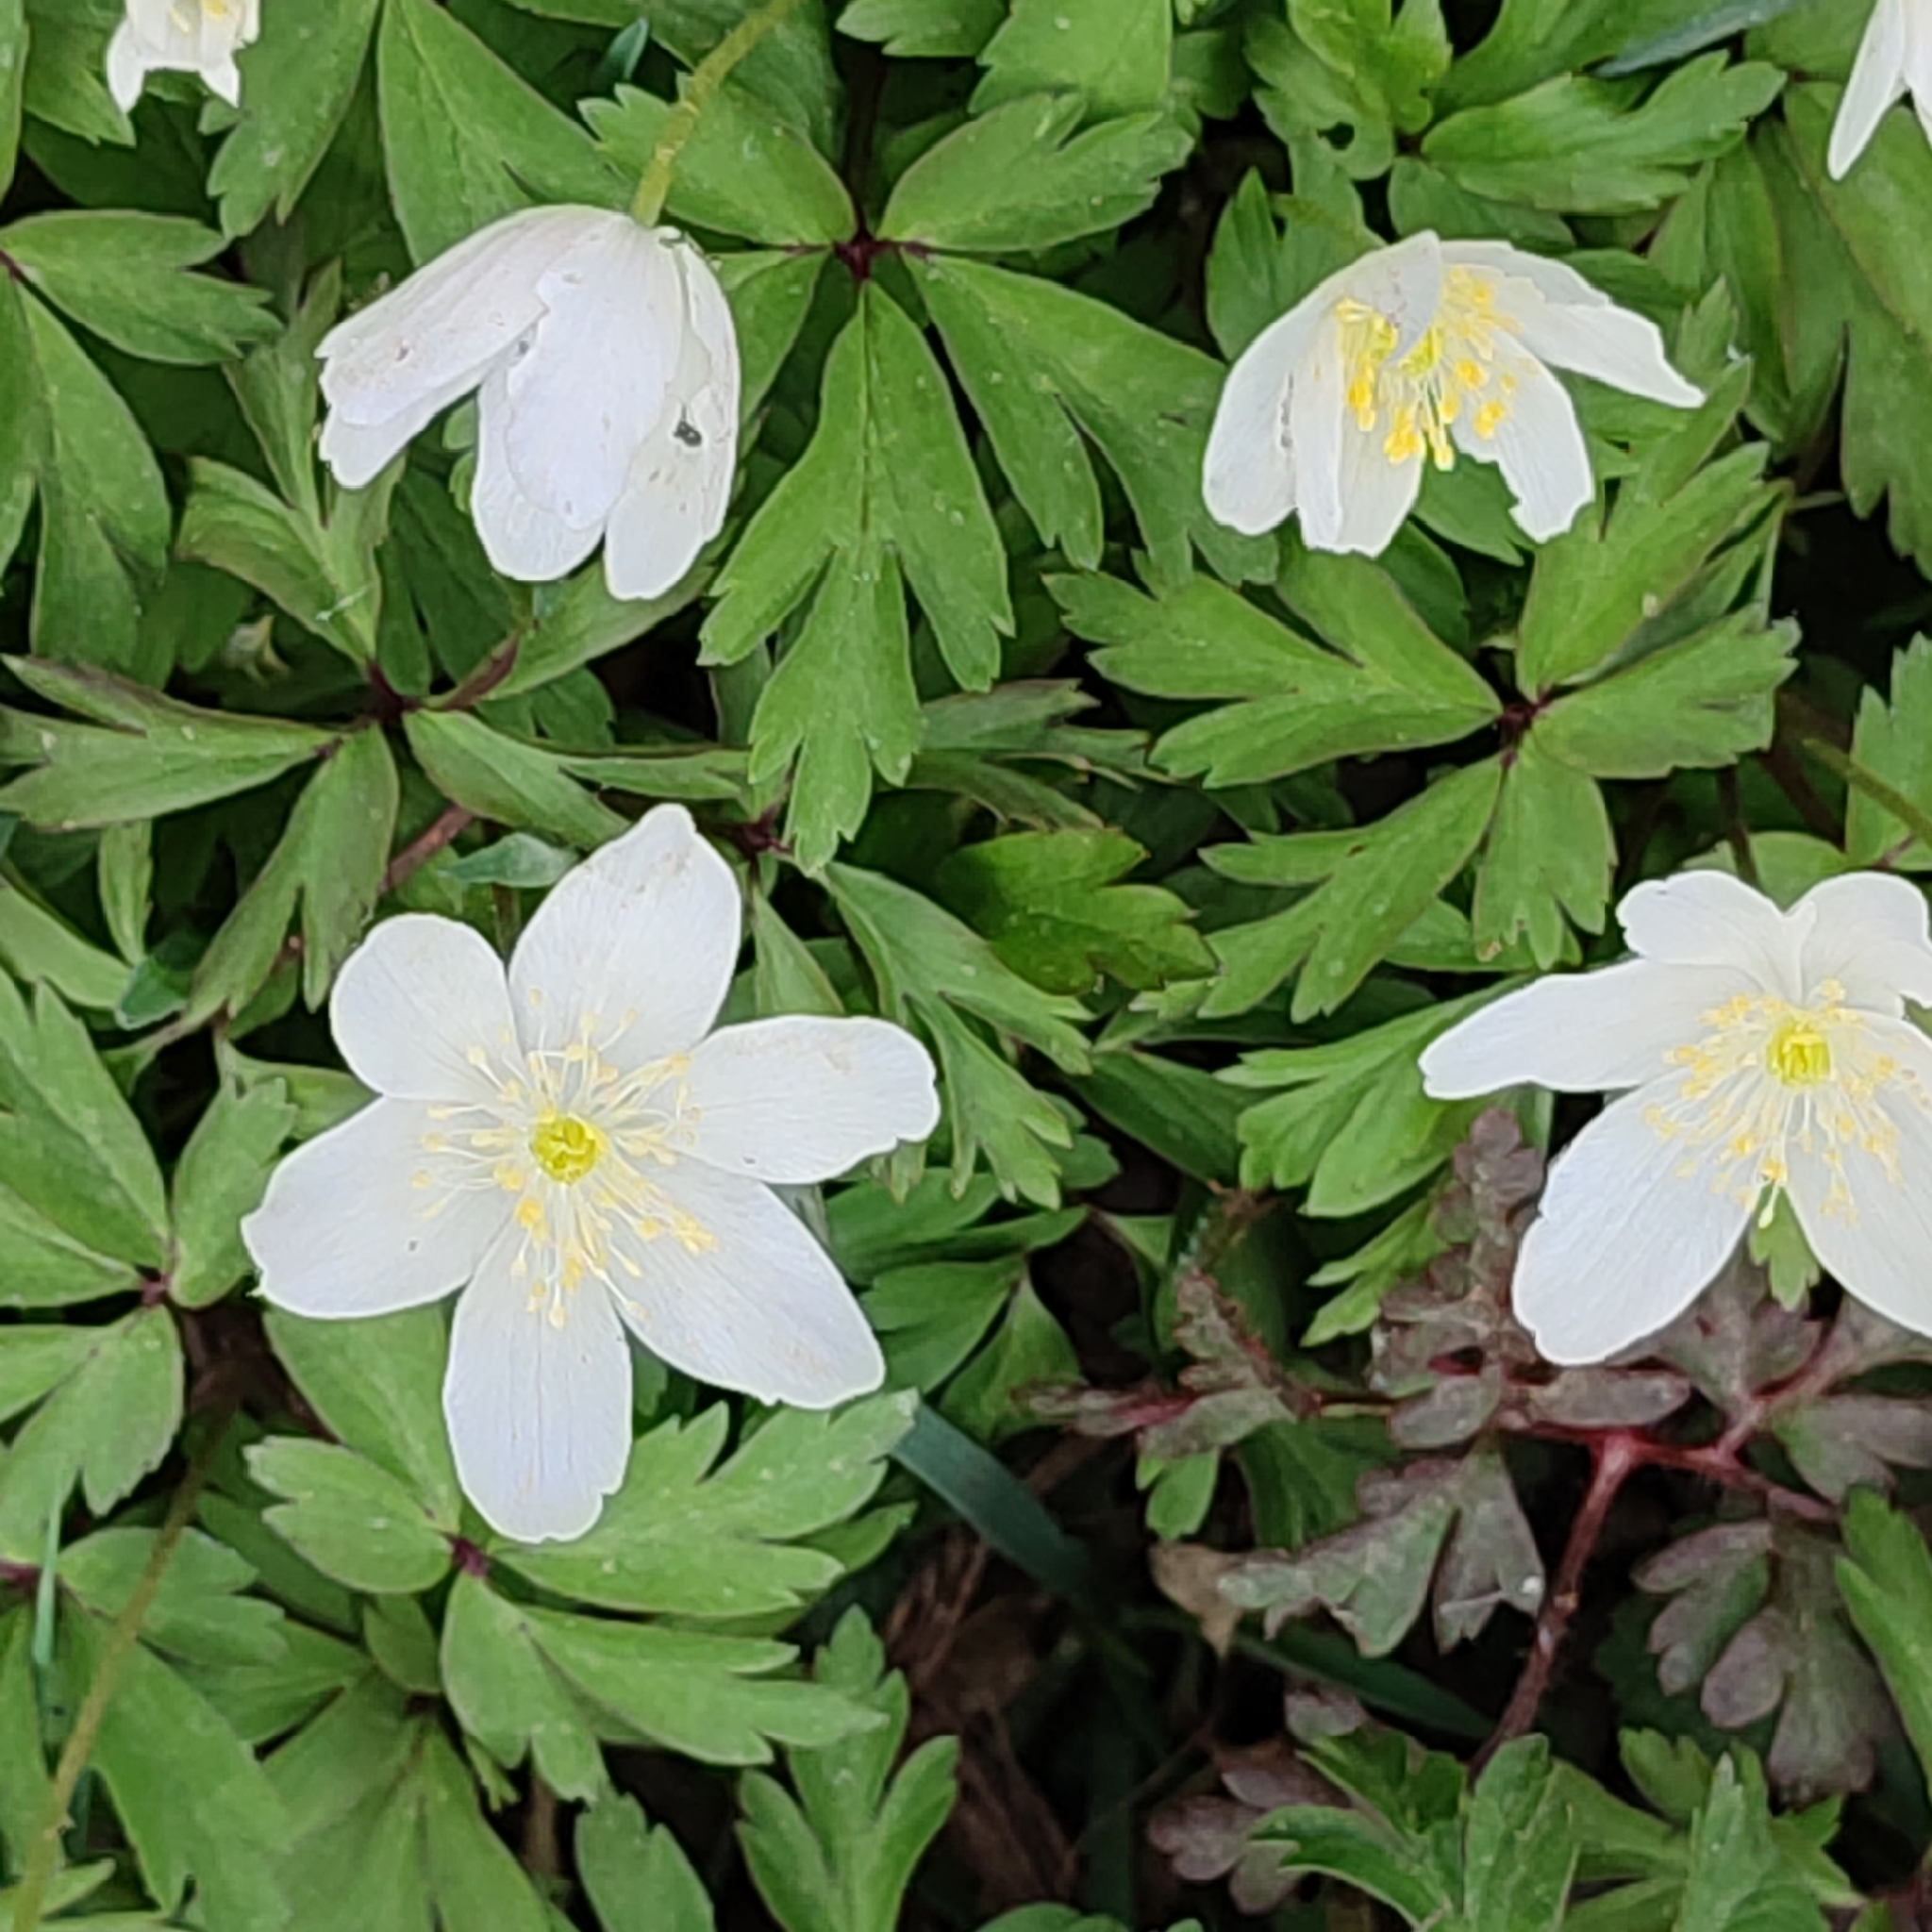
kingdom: Plantae
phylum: Tracheophyta
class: Magnoliopsida
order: Ranunculales
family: Ranunculaceae
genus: Anemone
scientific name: Anemone nemorosa
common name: Wood anemone
